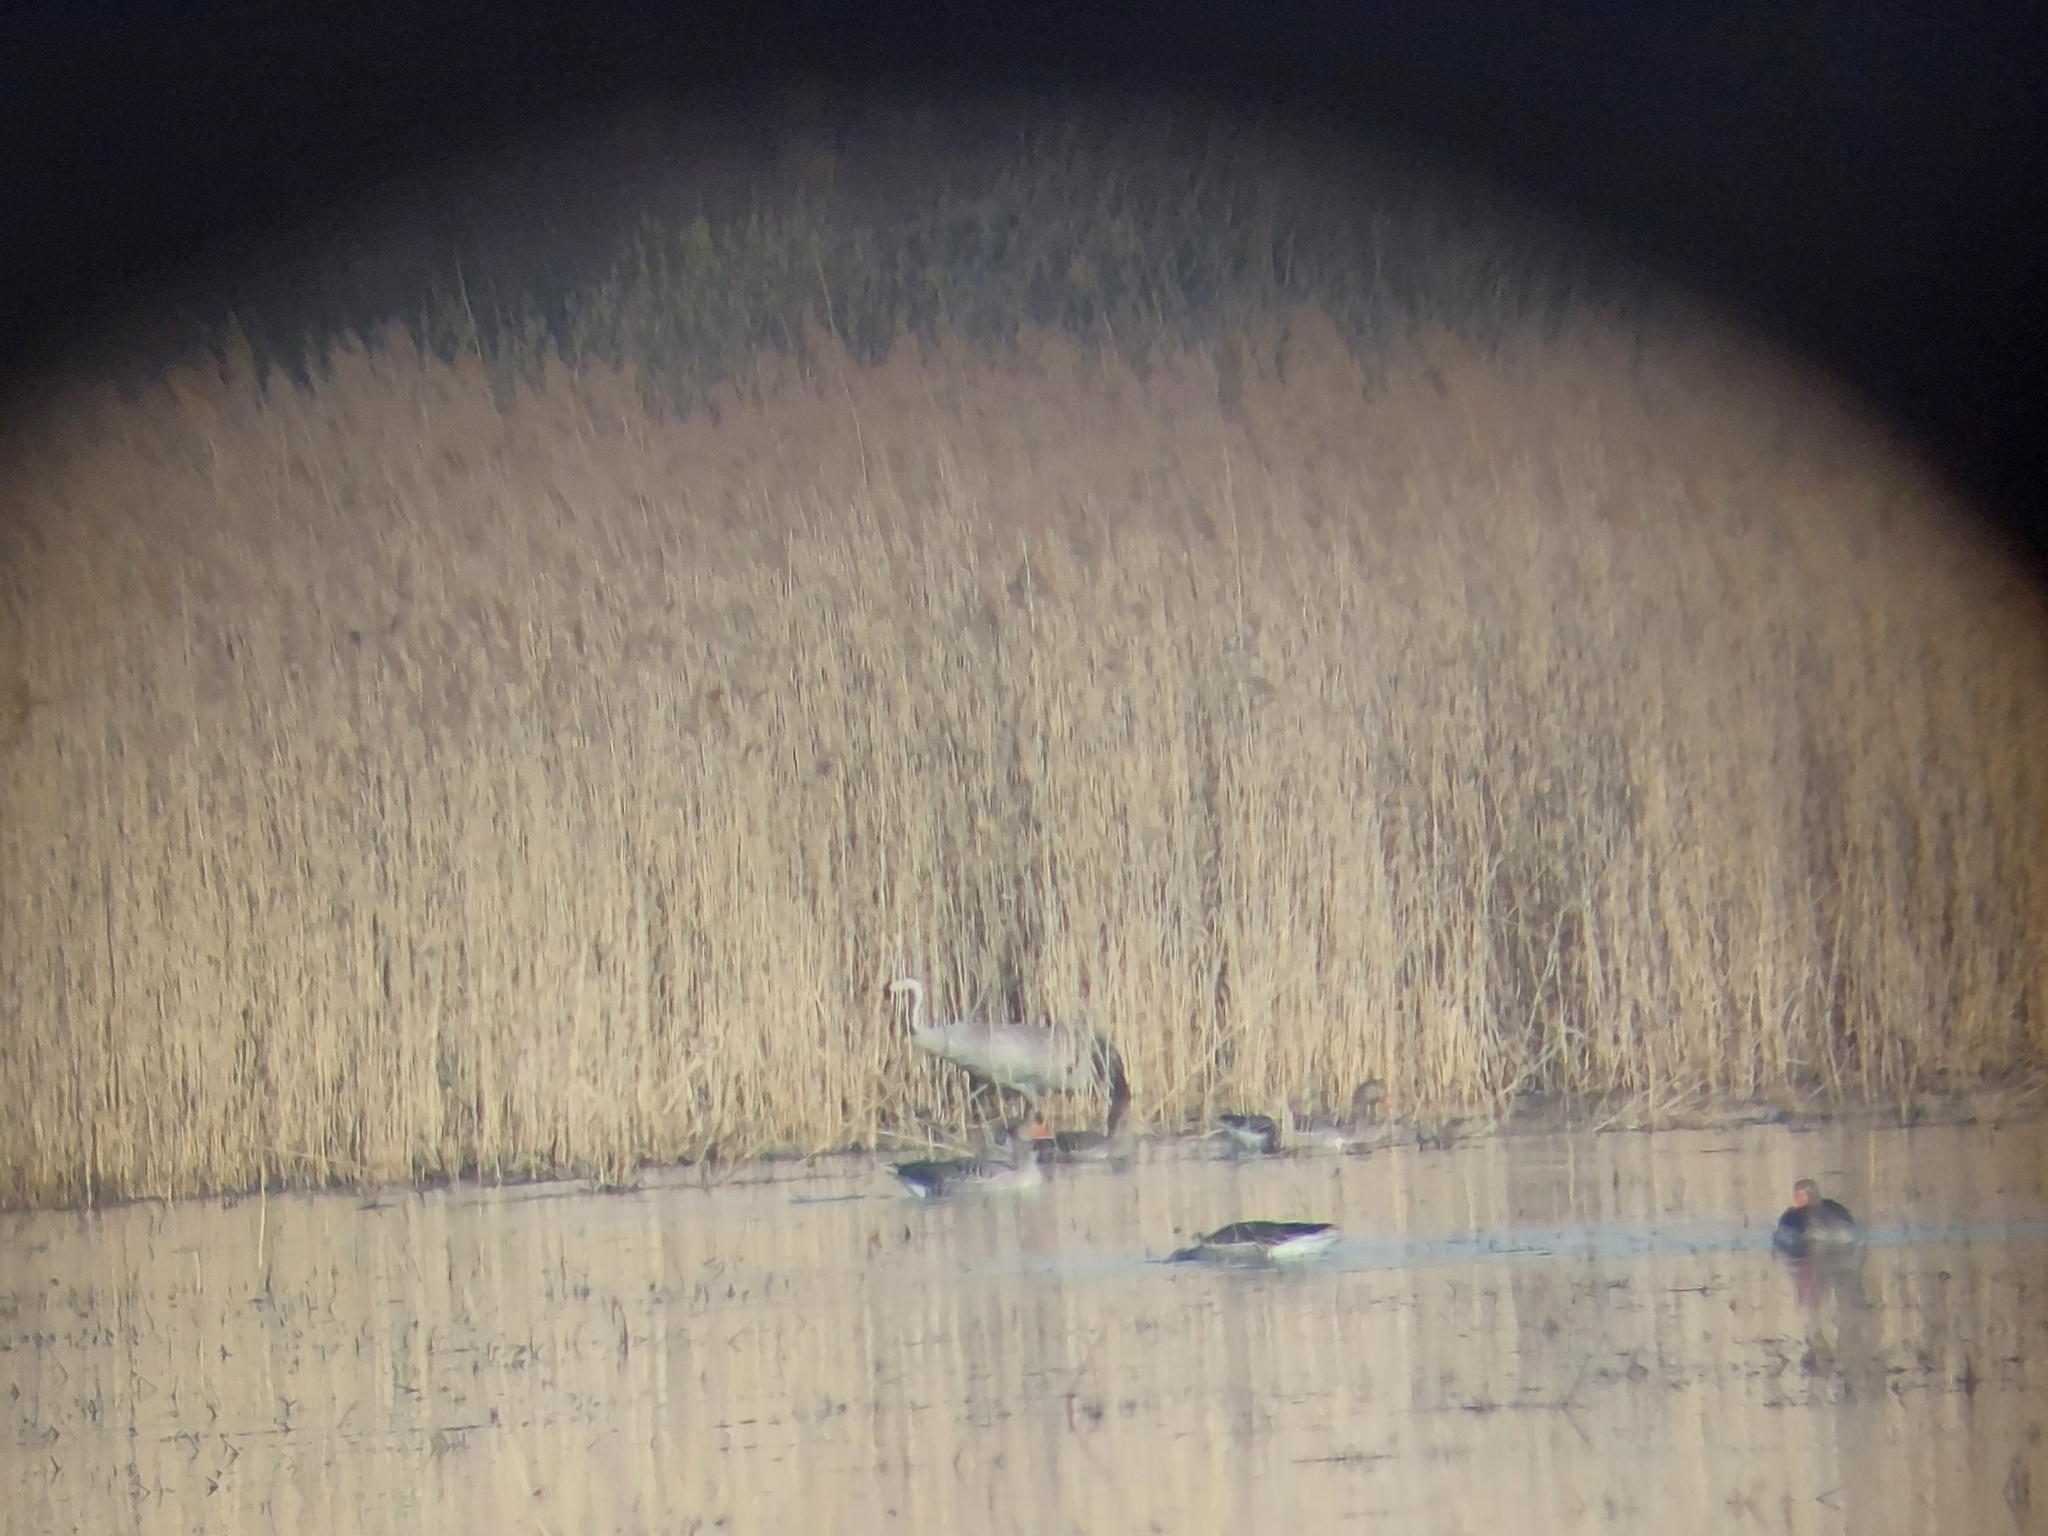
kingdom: Animalia
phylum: Chordata
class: Aves
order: Gruiformes
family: Gruidae
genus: Grus
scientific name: Grus grus
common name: Common crane
